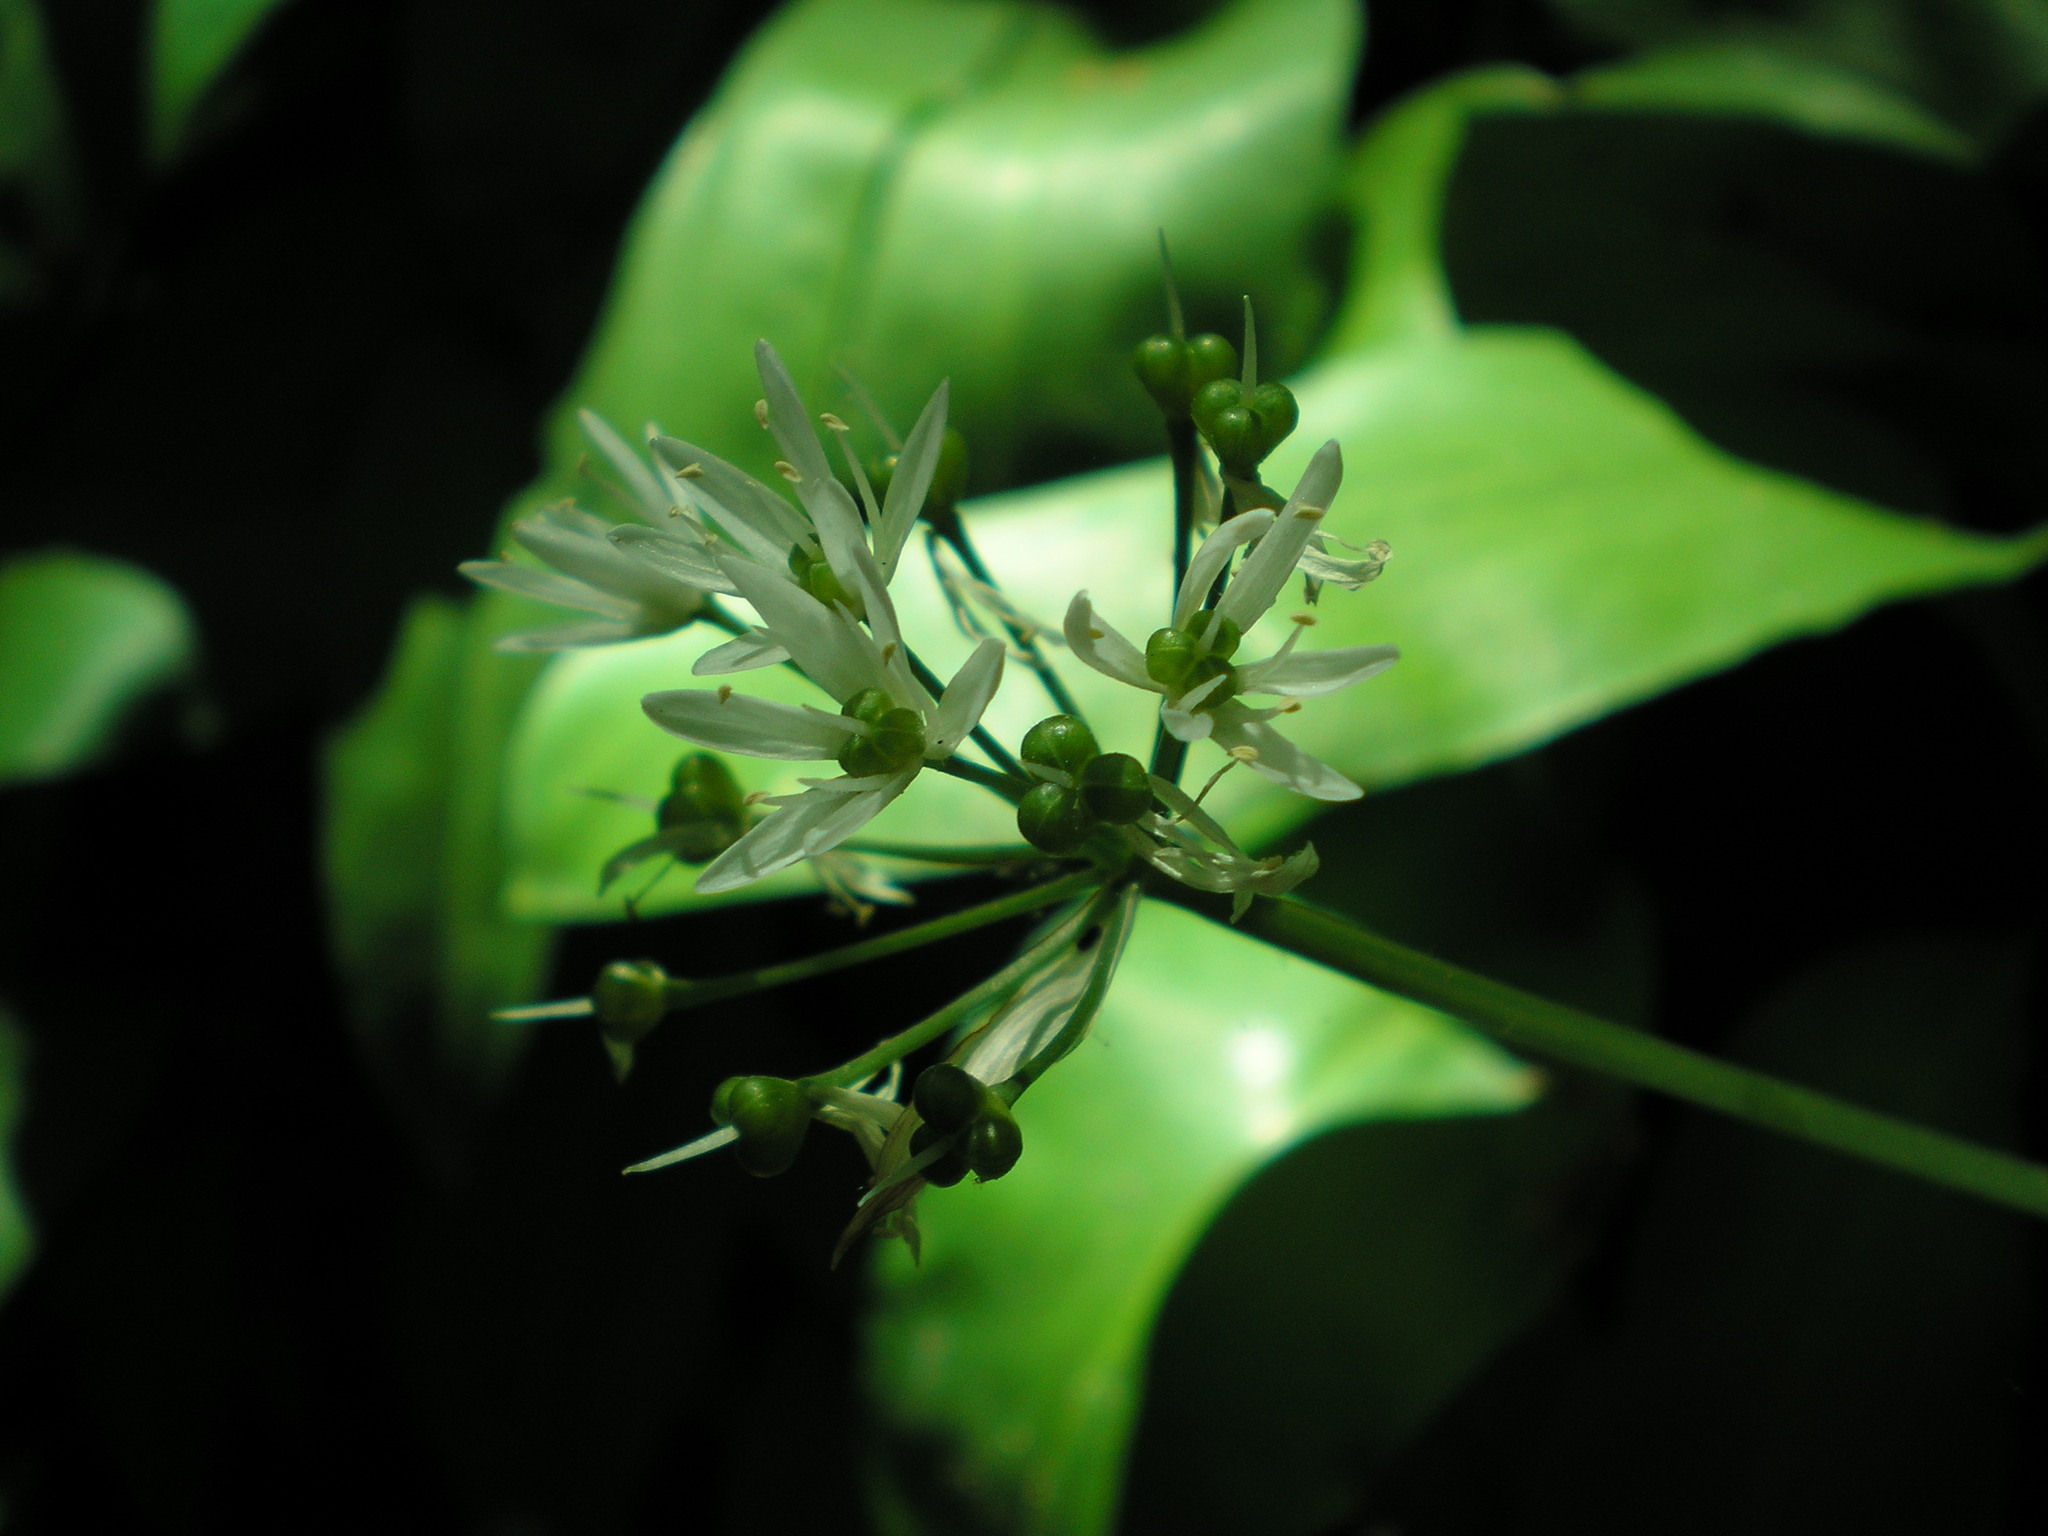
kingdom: Plantae
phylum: Tracheophyta
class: Liliopsida
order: Asparagales
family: Amaryllidaceae
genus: Allium
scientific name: Allium ursinum
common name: Ramsons
